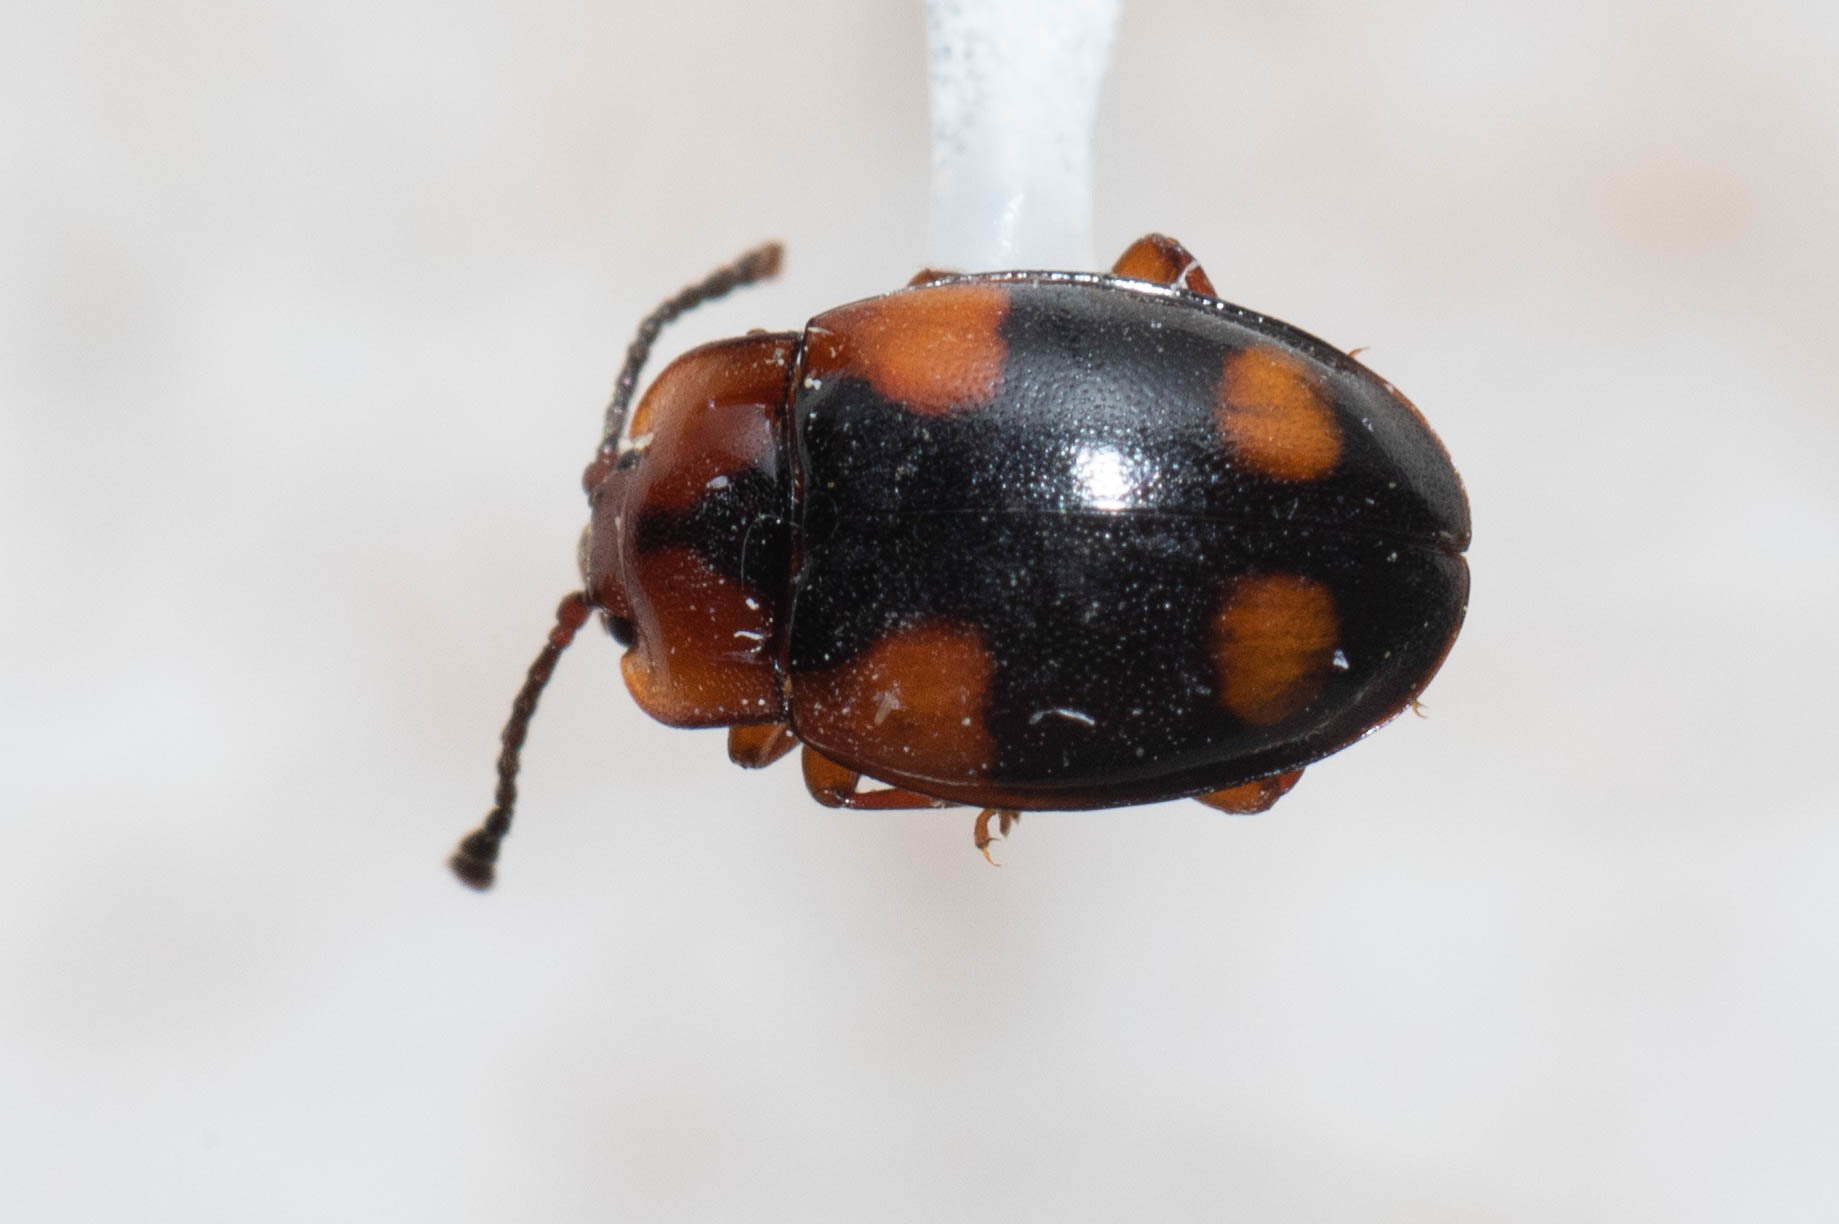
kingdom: Animalia
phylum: Arthropoda
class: Insecta
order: Coleoptera
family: Endomychidae
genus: Mycetina
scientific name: Mycetina idahoensis
